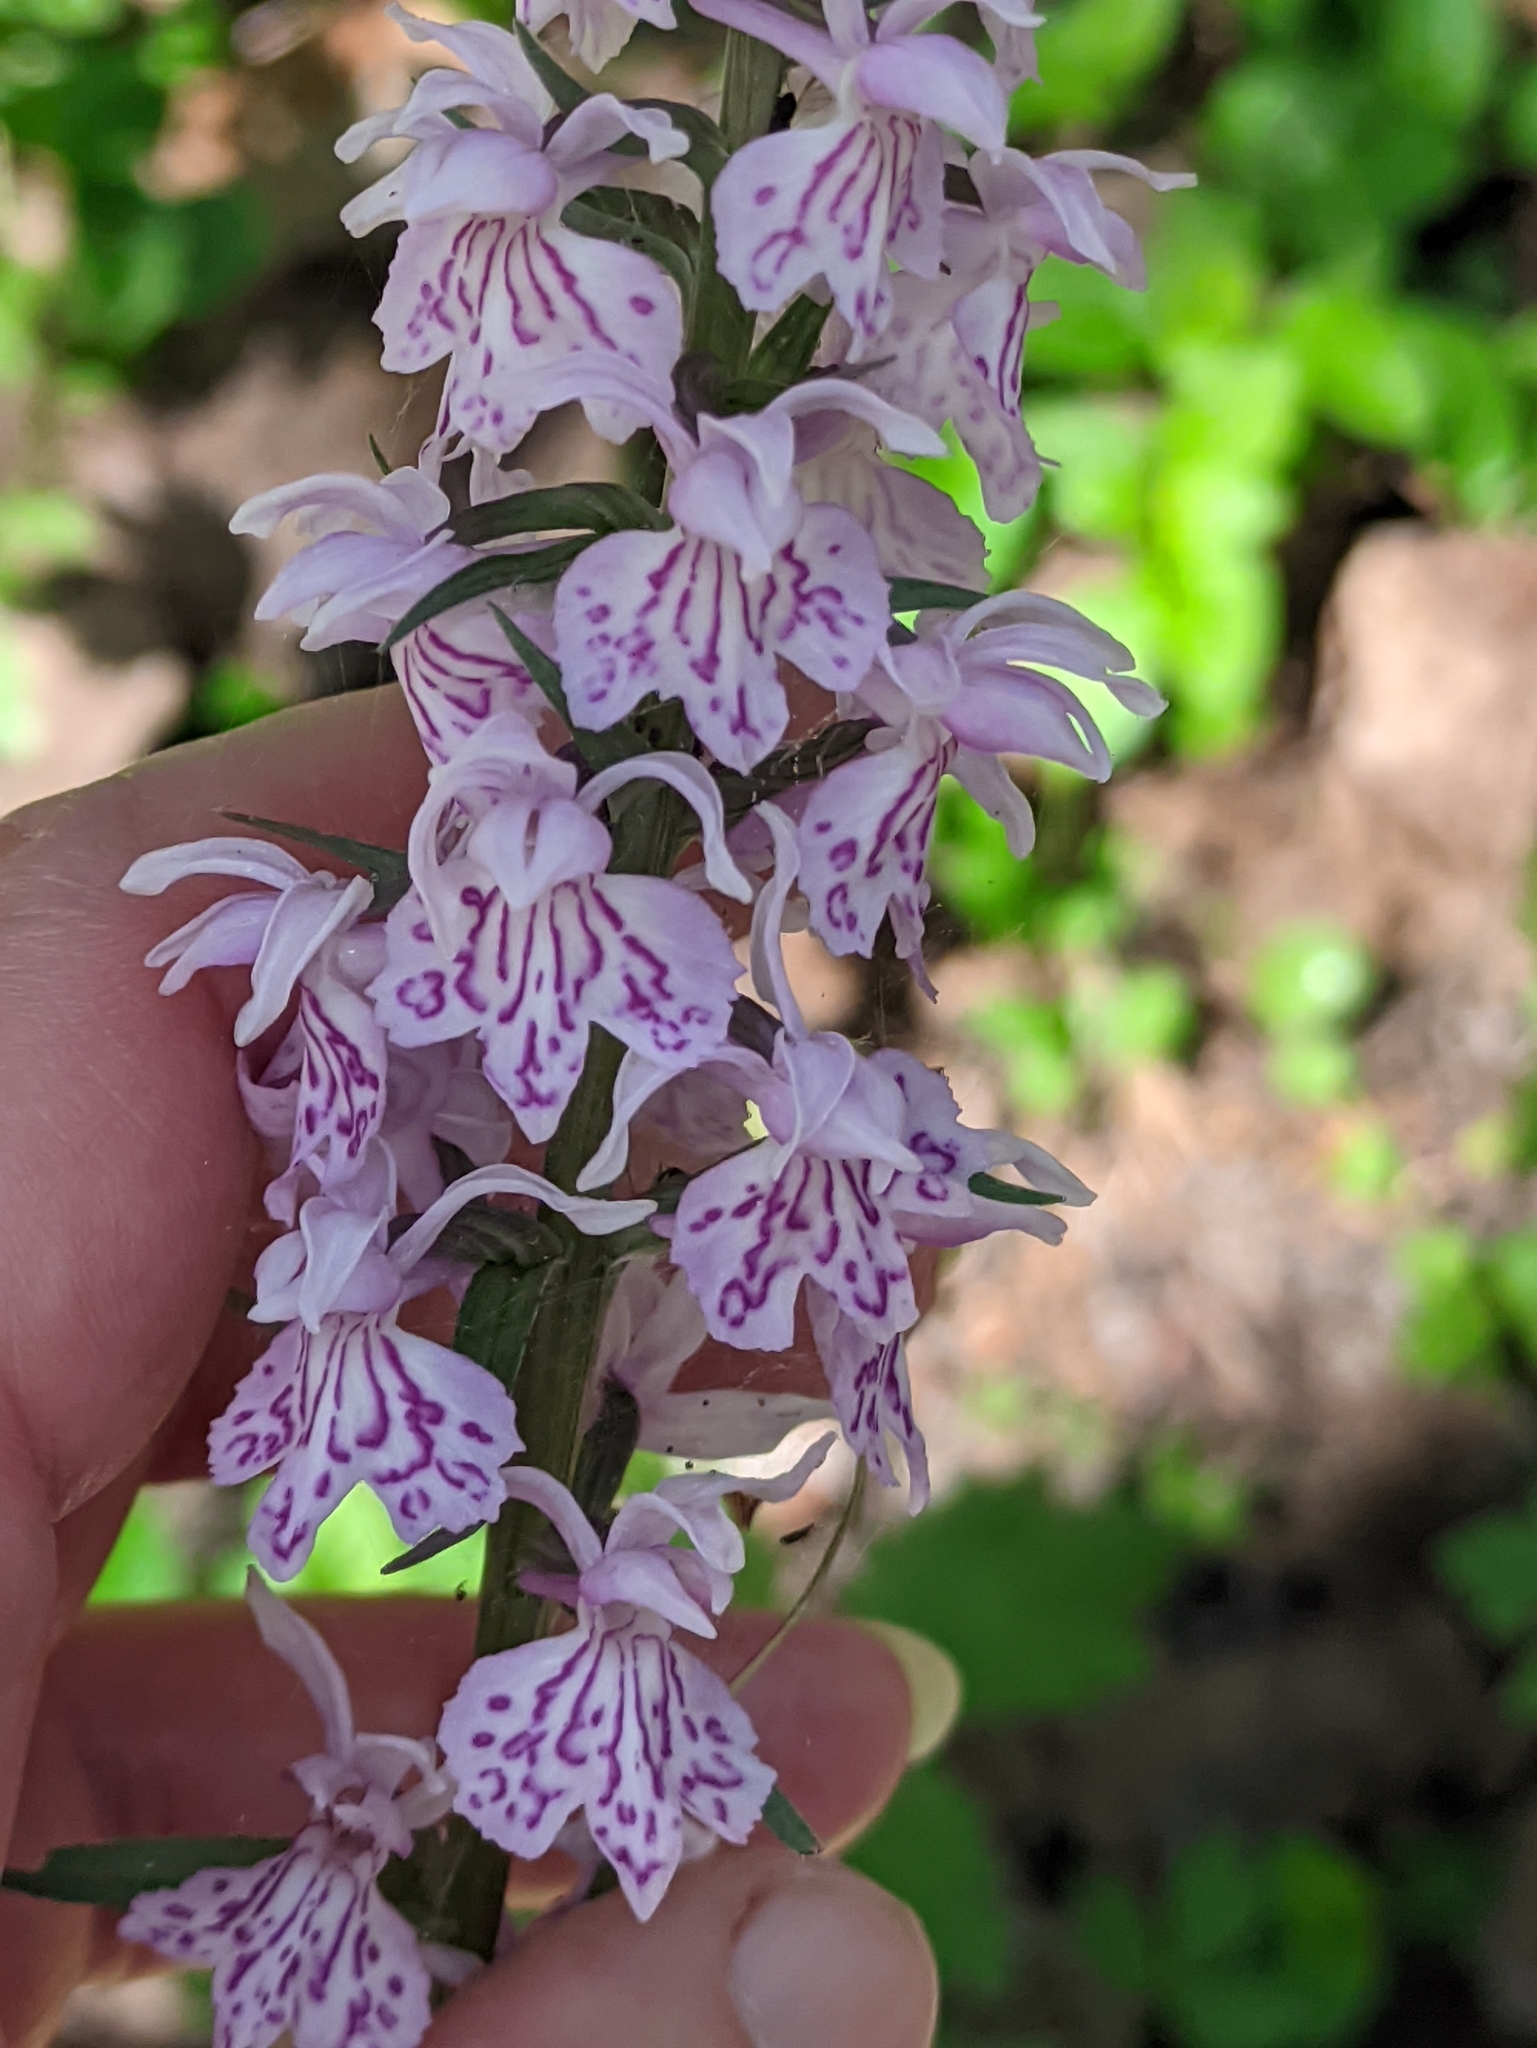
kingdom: Plantae
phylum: Tracheophyta
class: Liliopsida
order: Asparagales
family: Orchidaceae
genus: Dactylorhiza
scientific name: Dactylorhiza maculata
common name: Heath spotted-orchid
